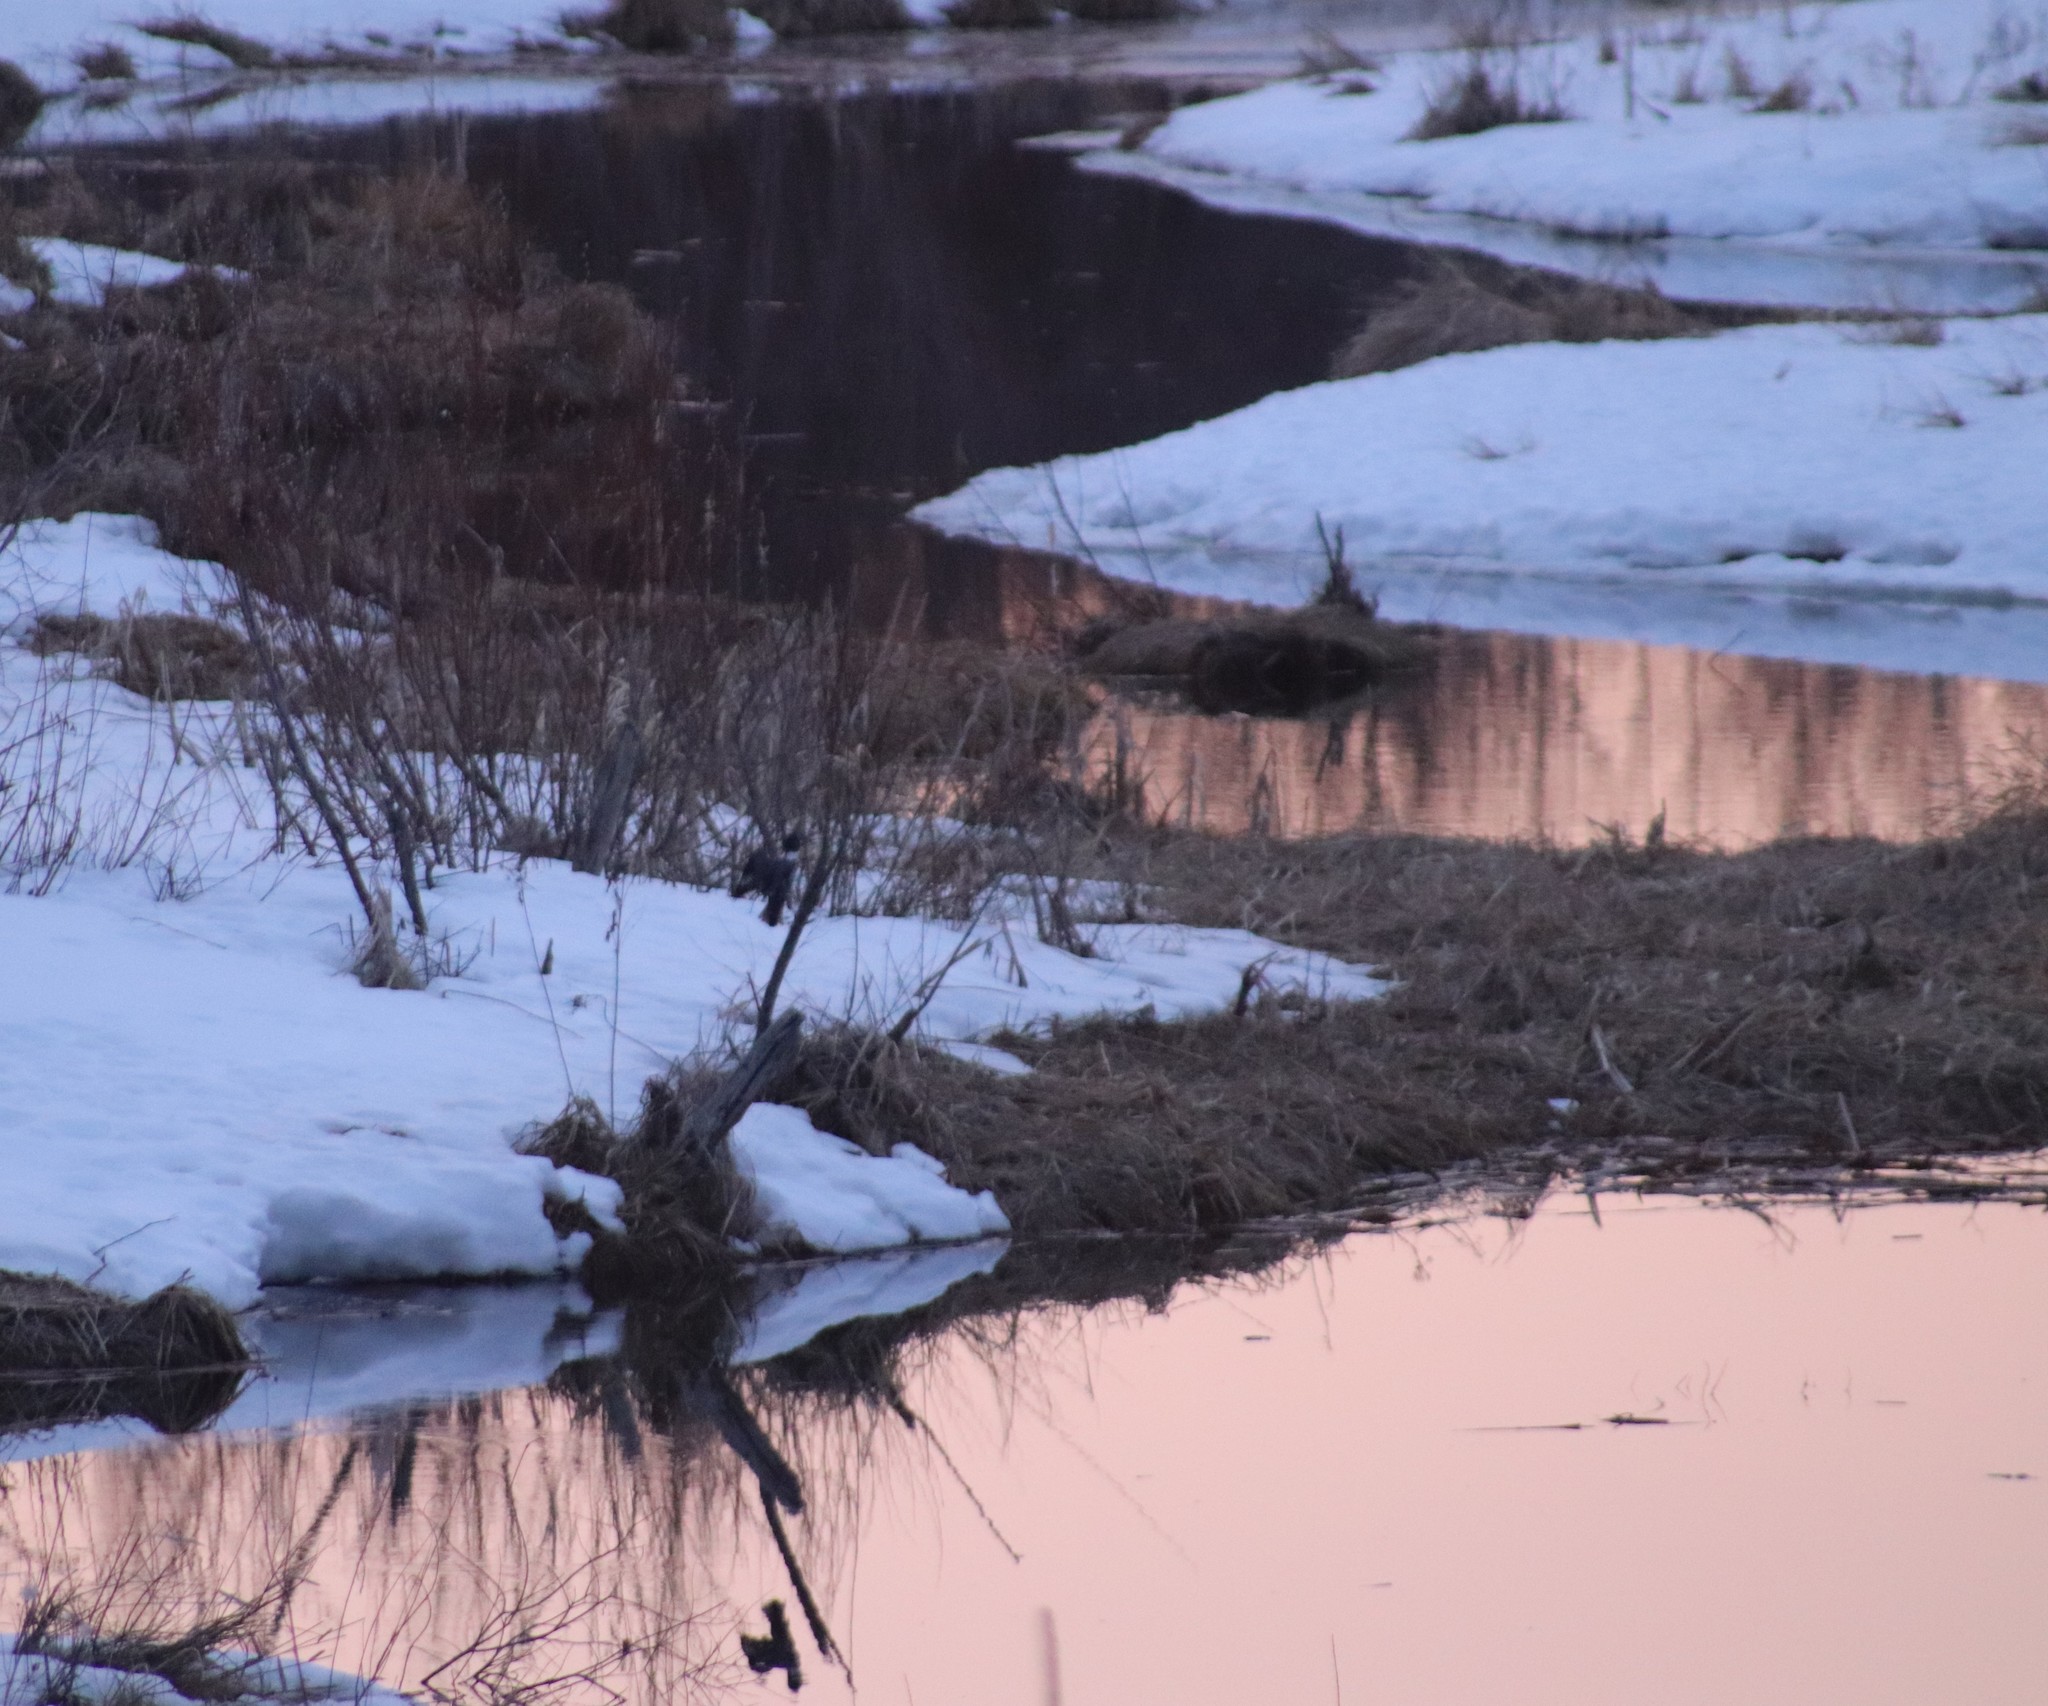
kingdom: Animalia
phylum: Chordata
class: Aves
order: Coraciiformes
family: Alcedinidae
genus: Megaceryle
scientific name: Megaceryle alcyon
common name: Belted kingfisher
